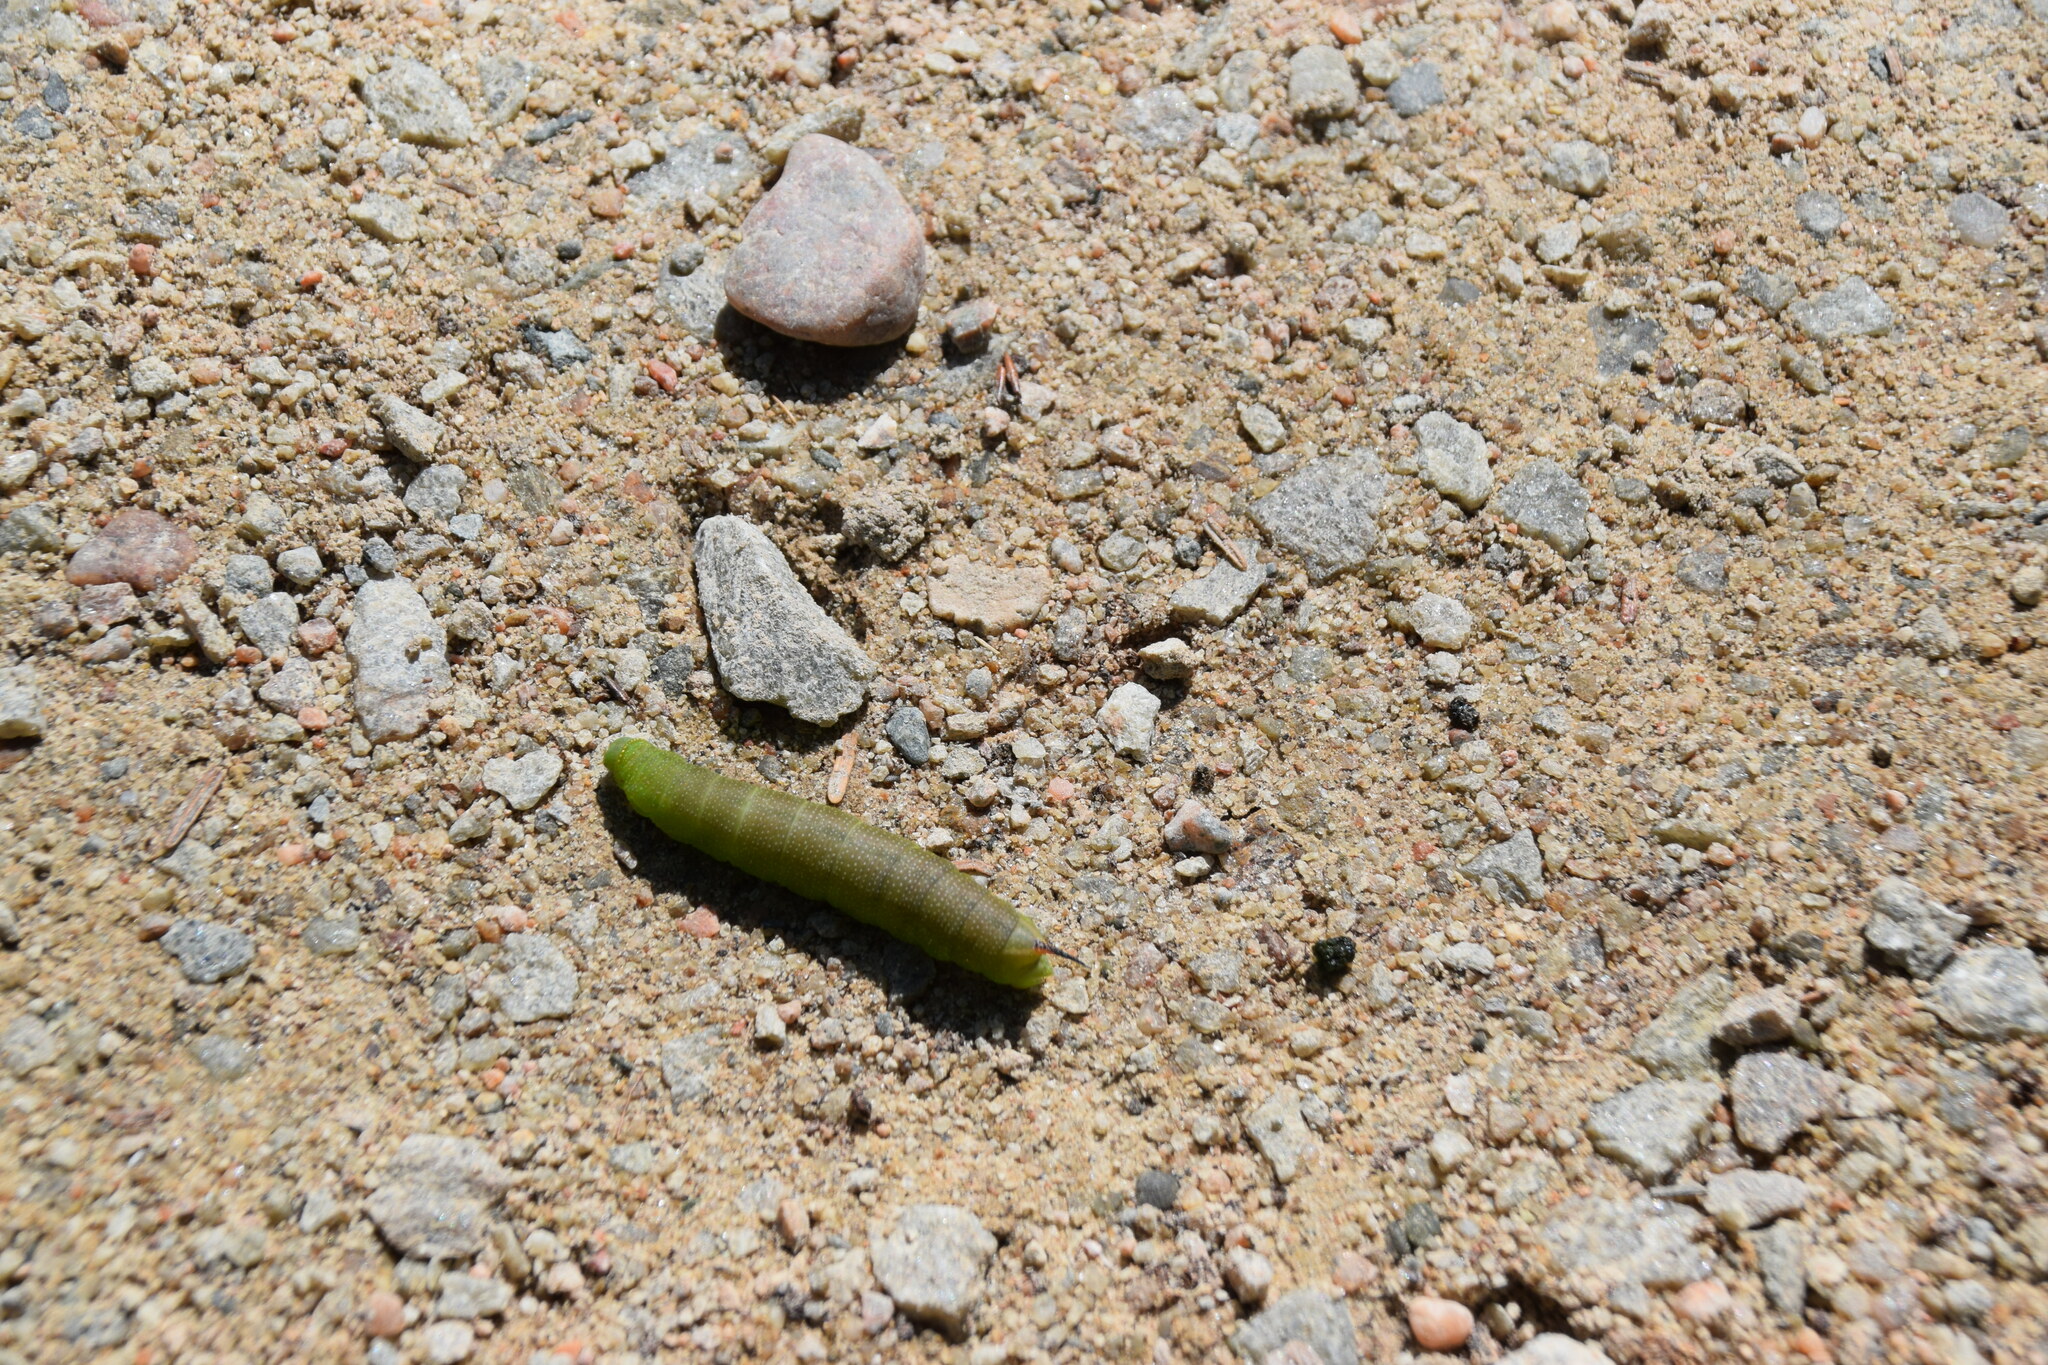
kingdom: Animalia
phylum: Arthropoda
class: Insecta
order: Lepidoptera
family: Sphingidae
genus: Hemaris
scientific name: Hemaris diffinis
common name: Bumblebee moth
